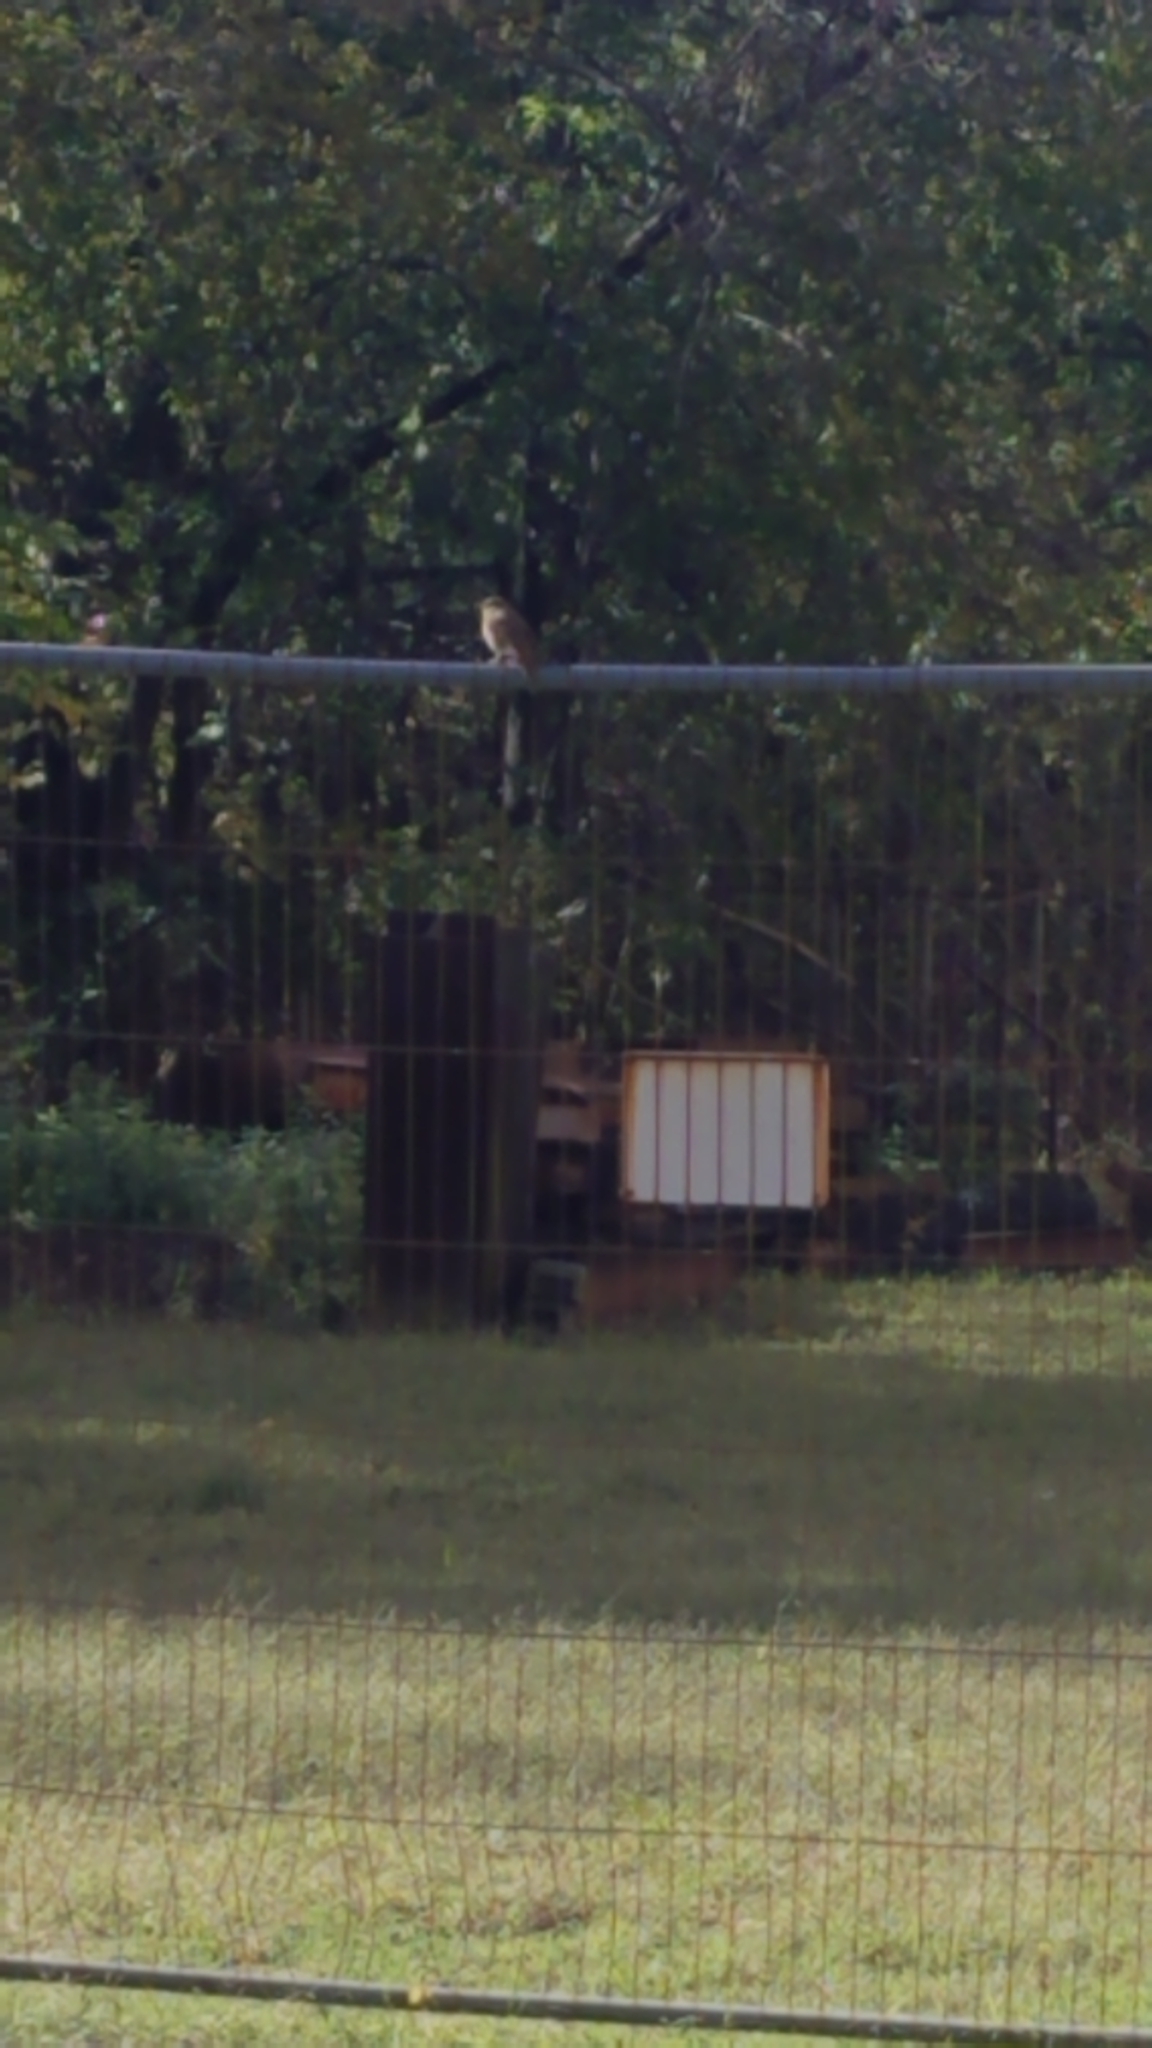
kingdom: Animalia
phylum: Chordata
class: Aves
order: Passeriformes
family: Turdidae
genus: Catharus
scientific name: Catharus guttatus
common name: Hermit thrush
